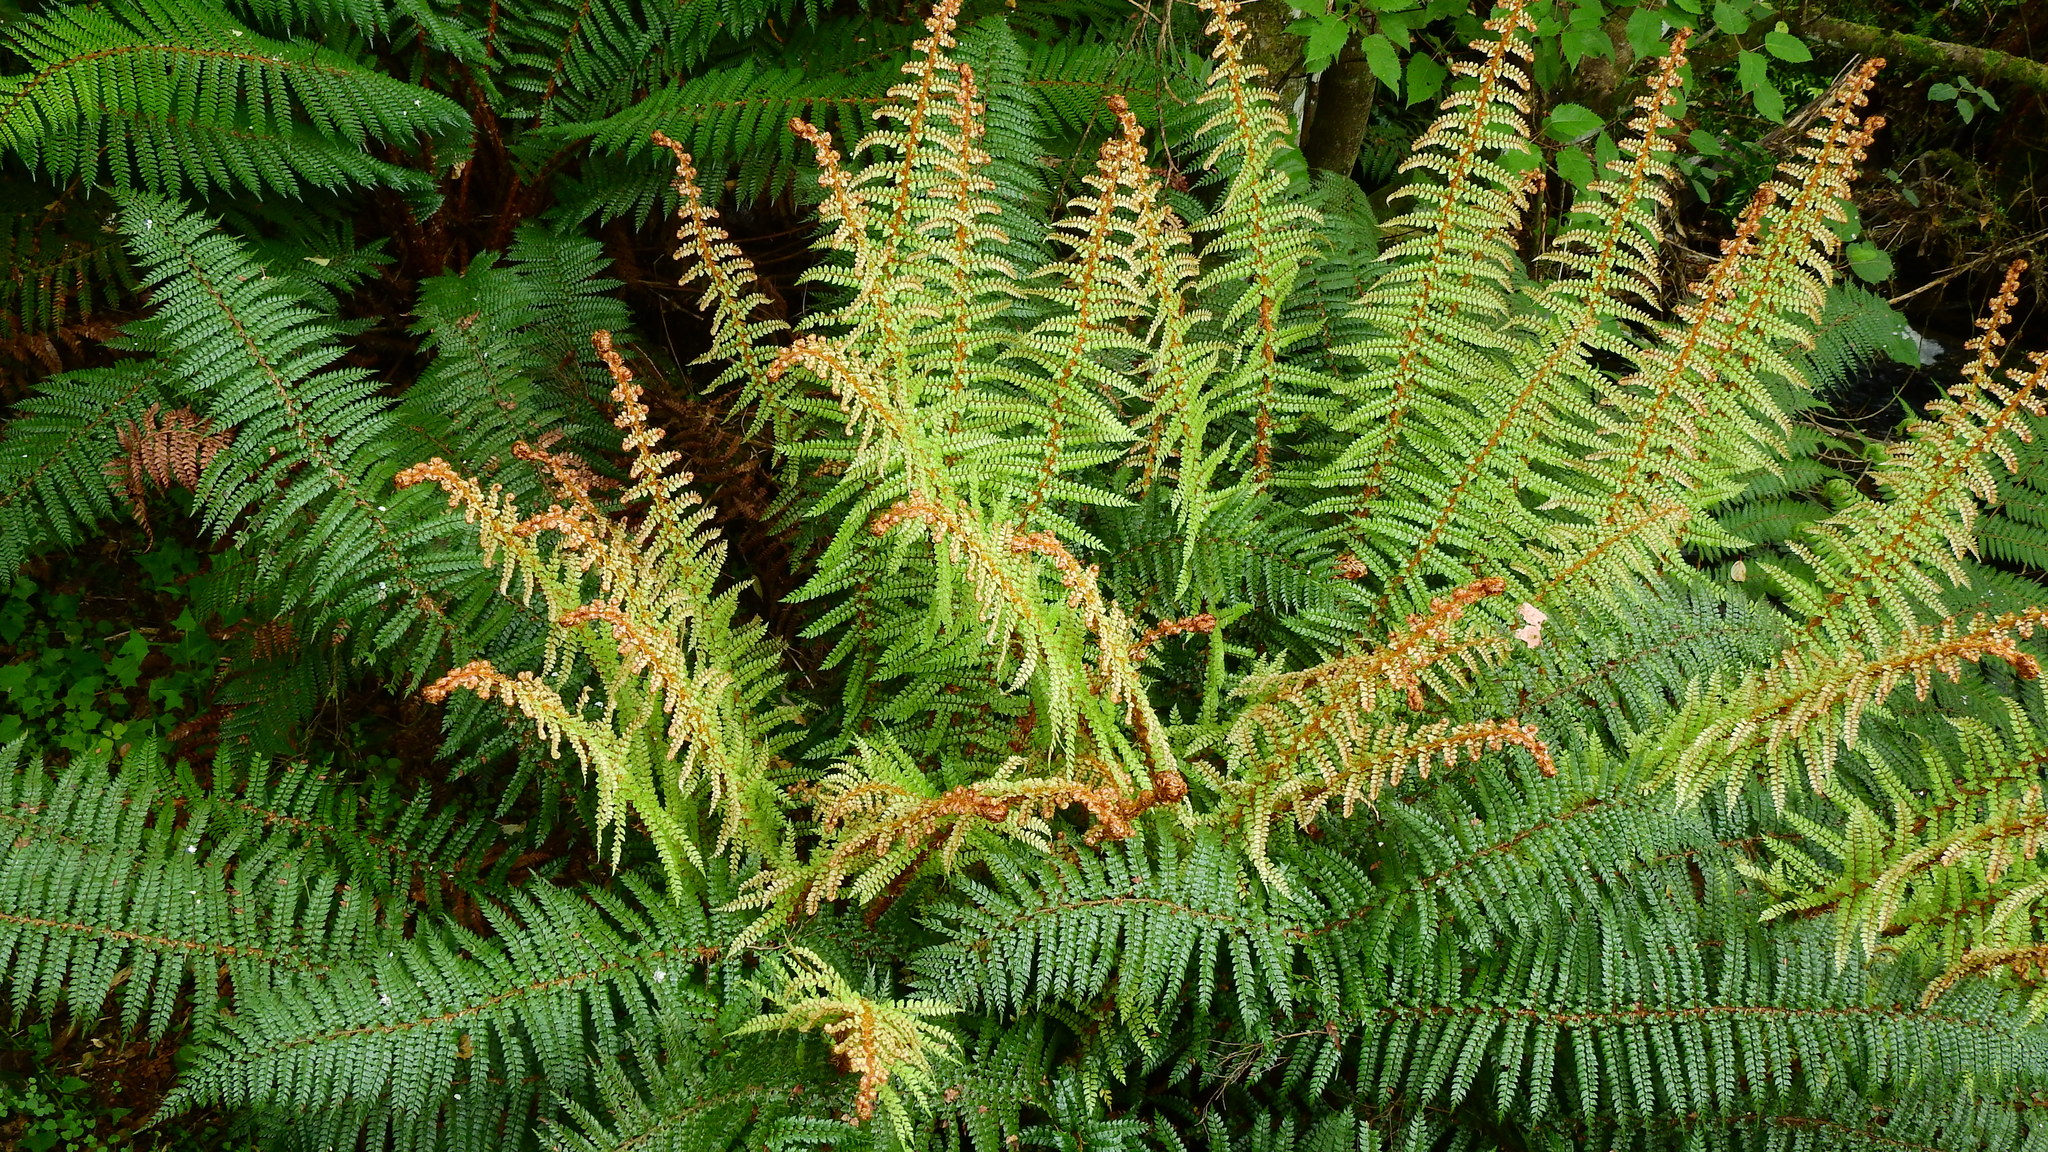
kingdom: Plantae
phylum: Tracheophyta
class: Polypodiopsida
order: Polypodiales
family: Dryopteridaceae
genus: Polystichum
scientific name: Polystichum vestitum
